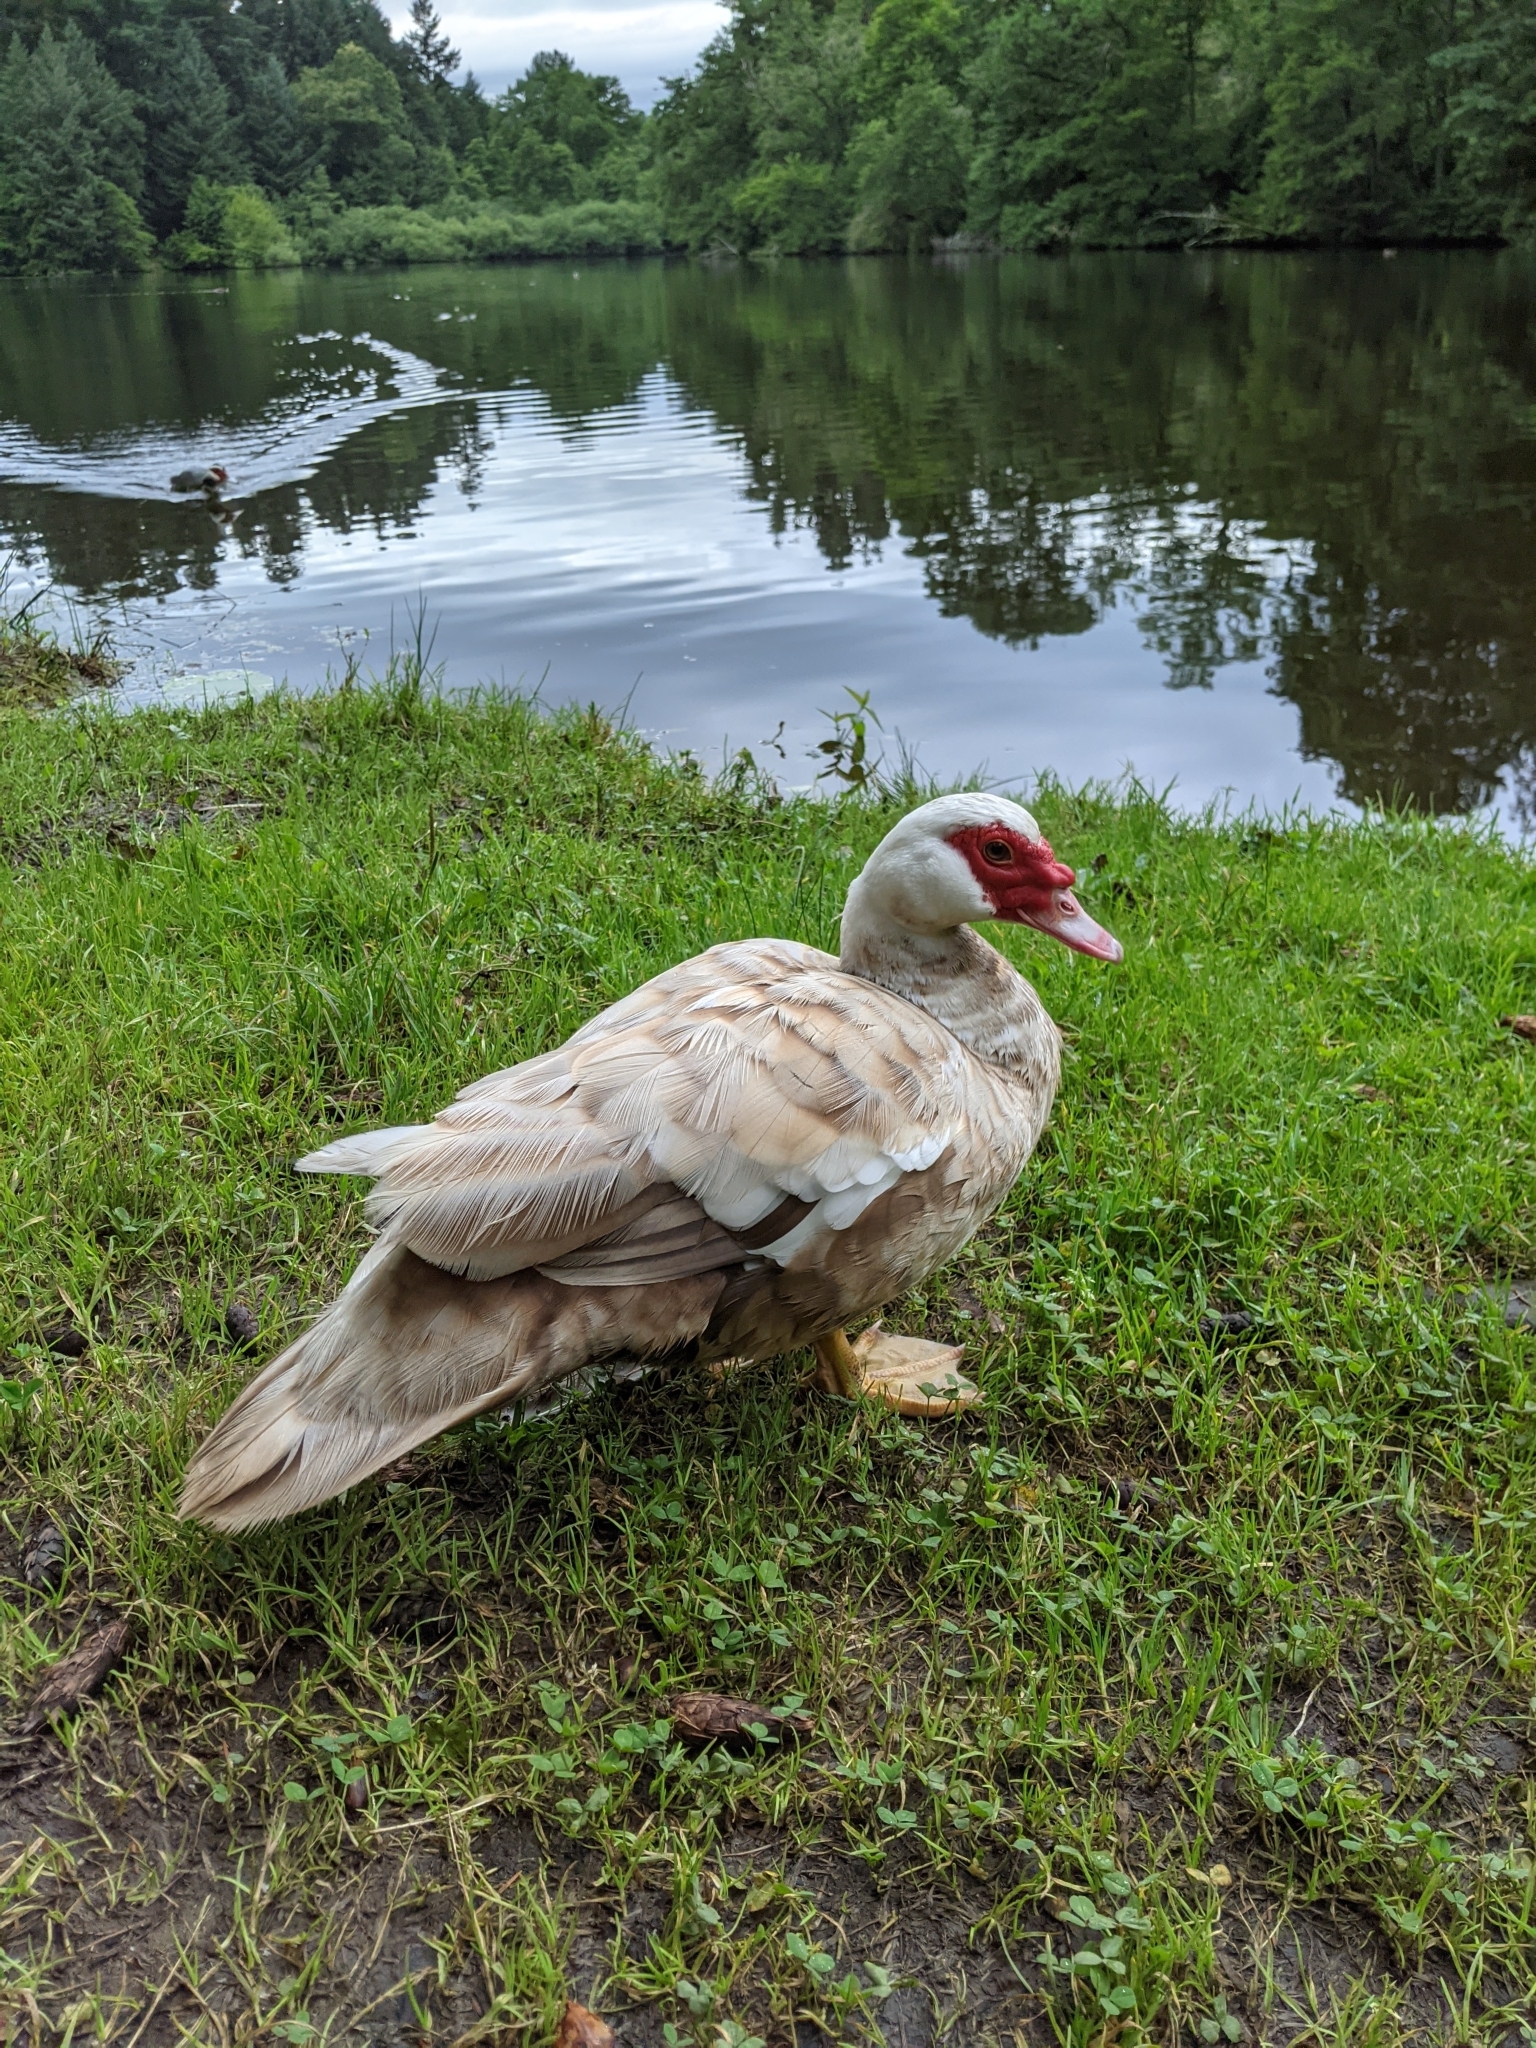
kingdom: Animalia
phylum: Chordata
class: Aves
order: Anseriformes
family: Anatidae
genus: Cairina
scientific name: Cairina moschata
